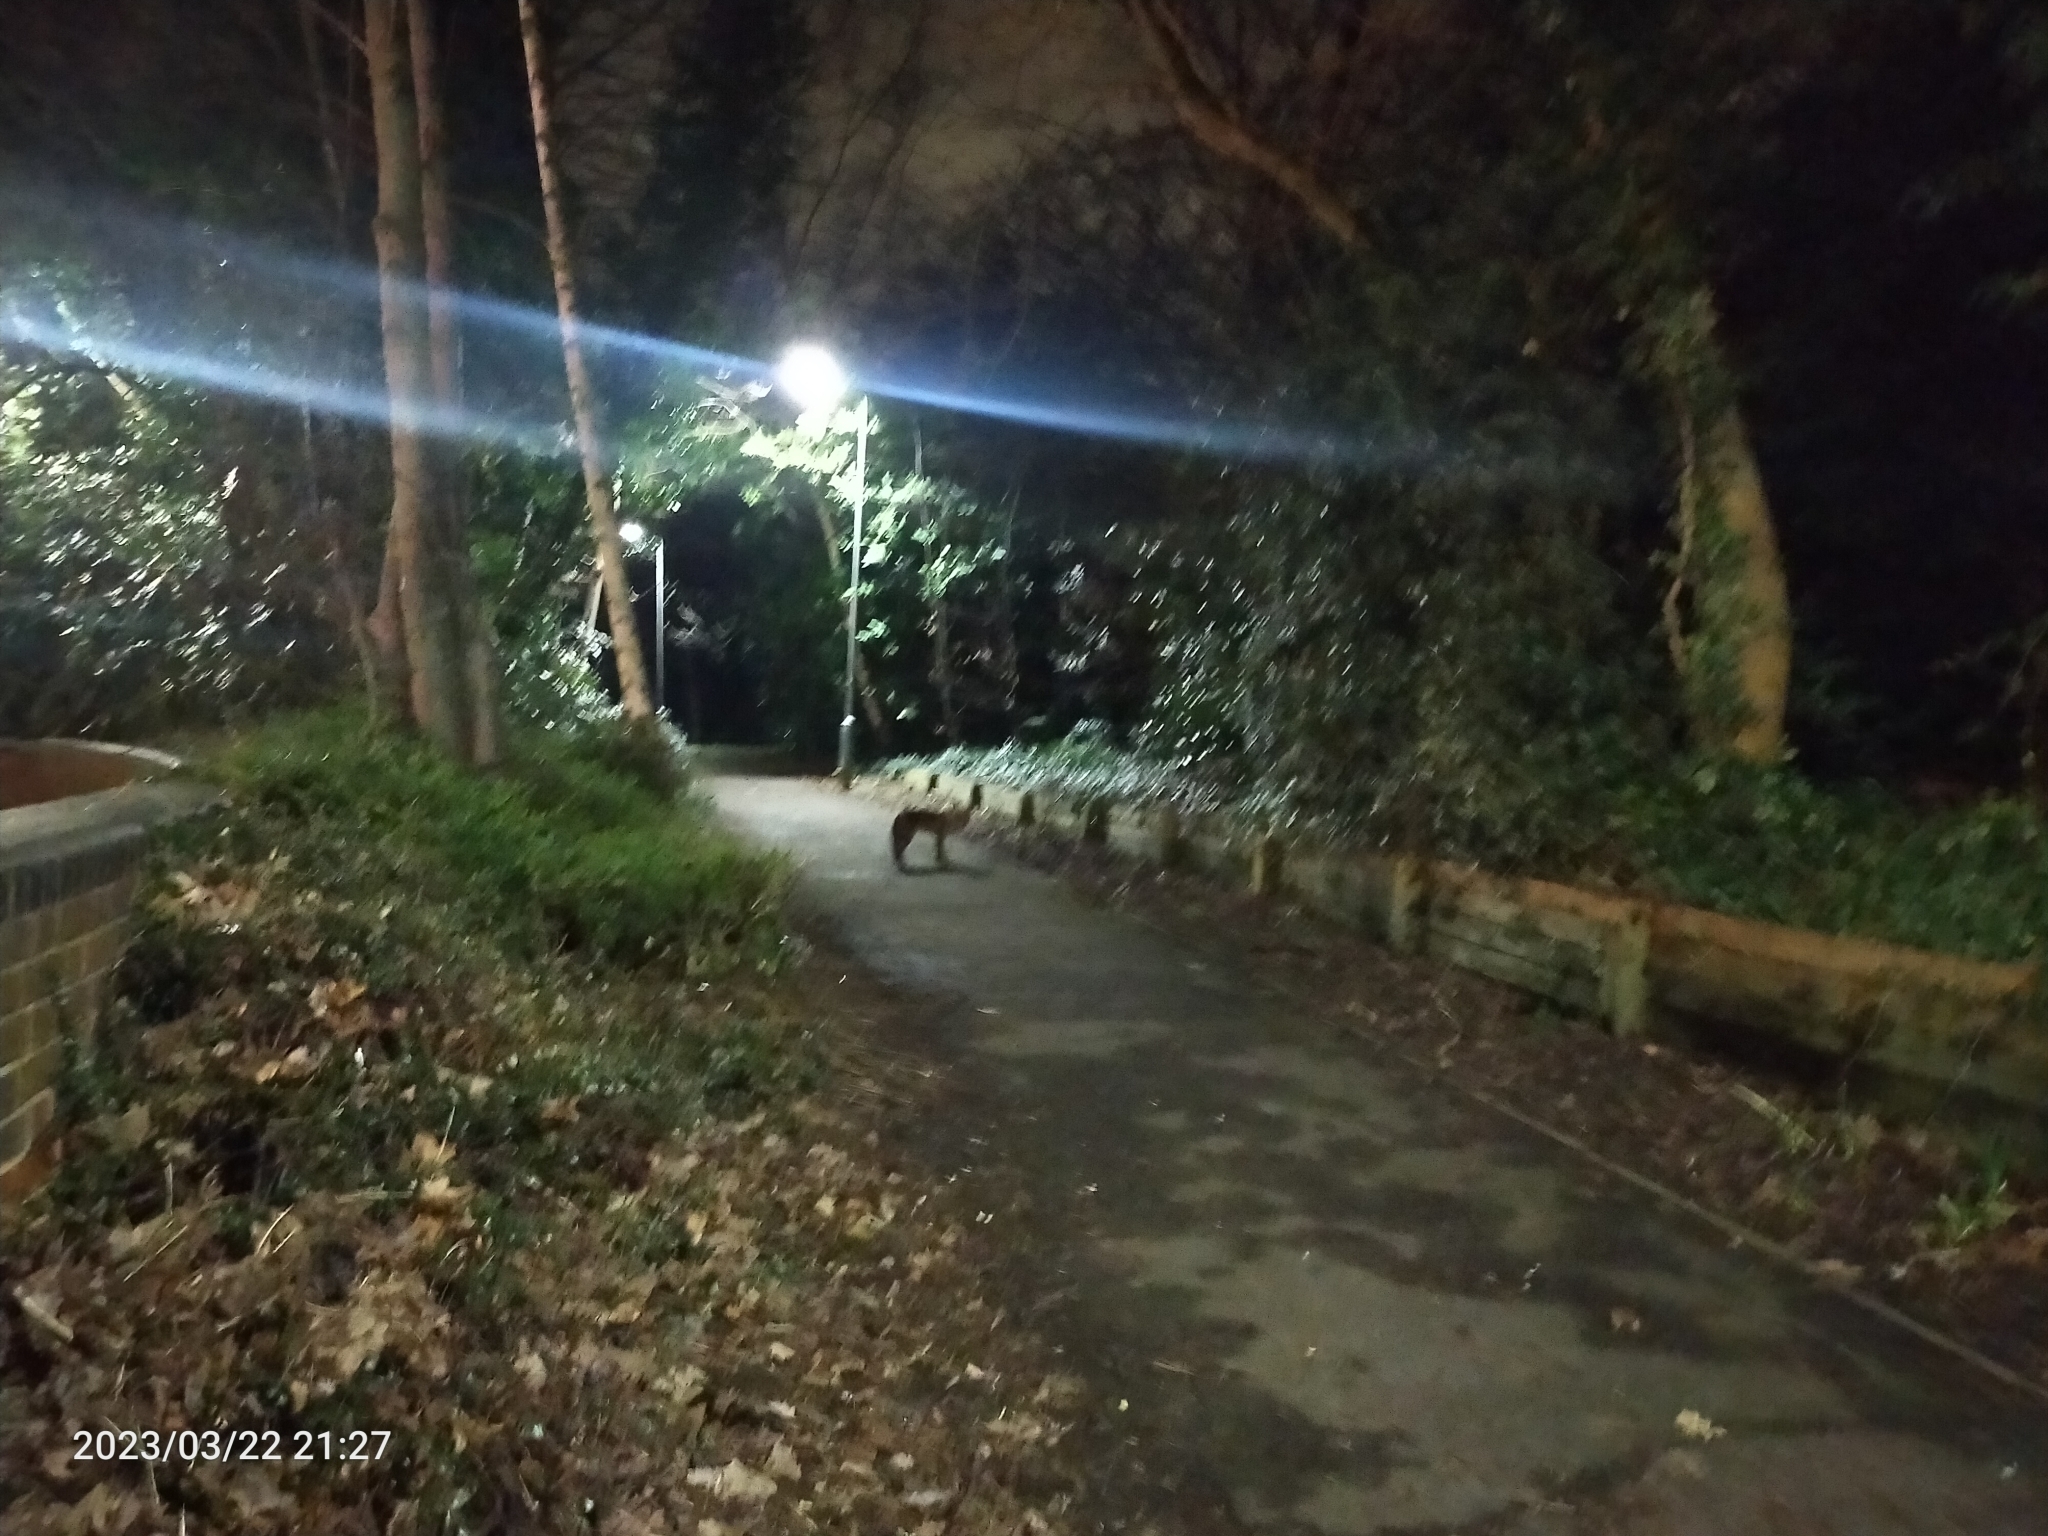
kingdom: Animalia
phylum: Chordata
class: Mammalia
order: Carnivora
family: Canidae
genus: Vulpes
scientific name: Vulpes vulpes
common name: Red fox
